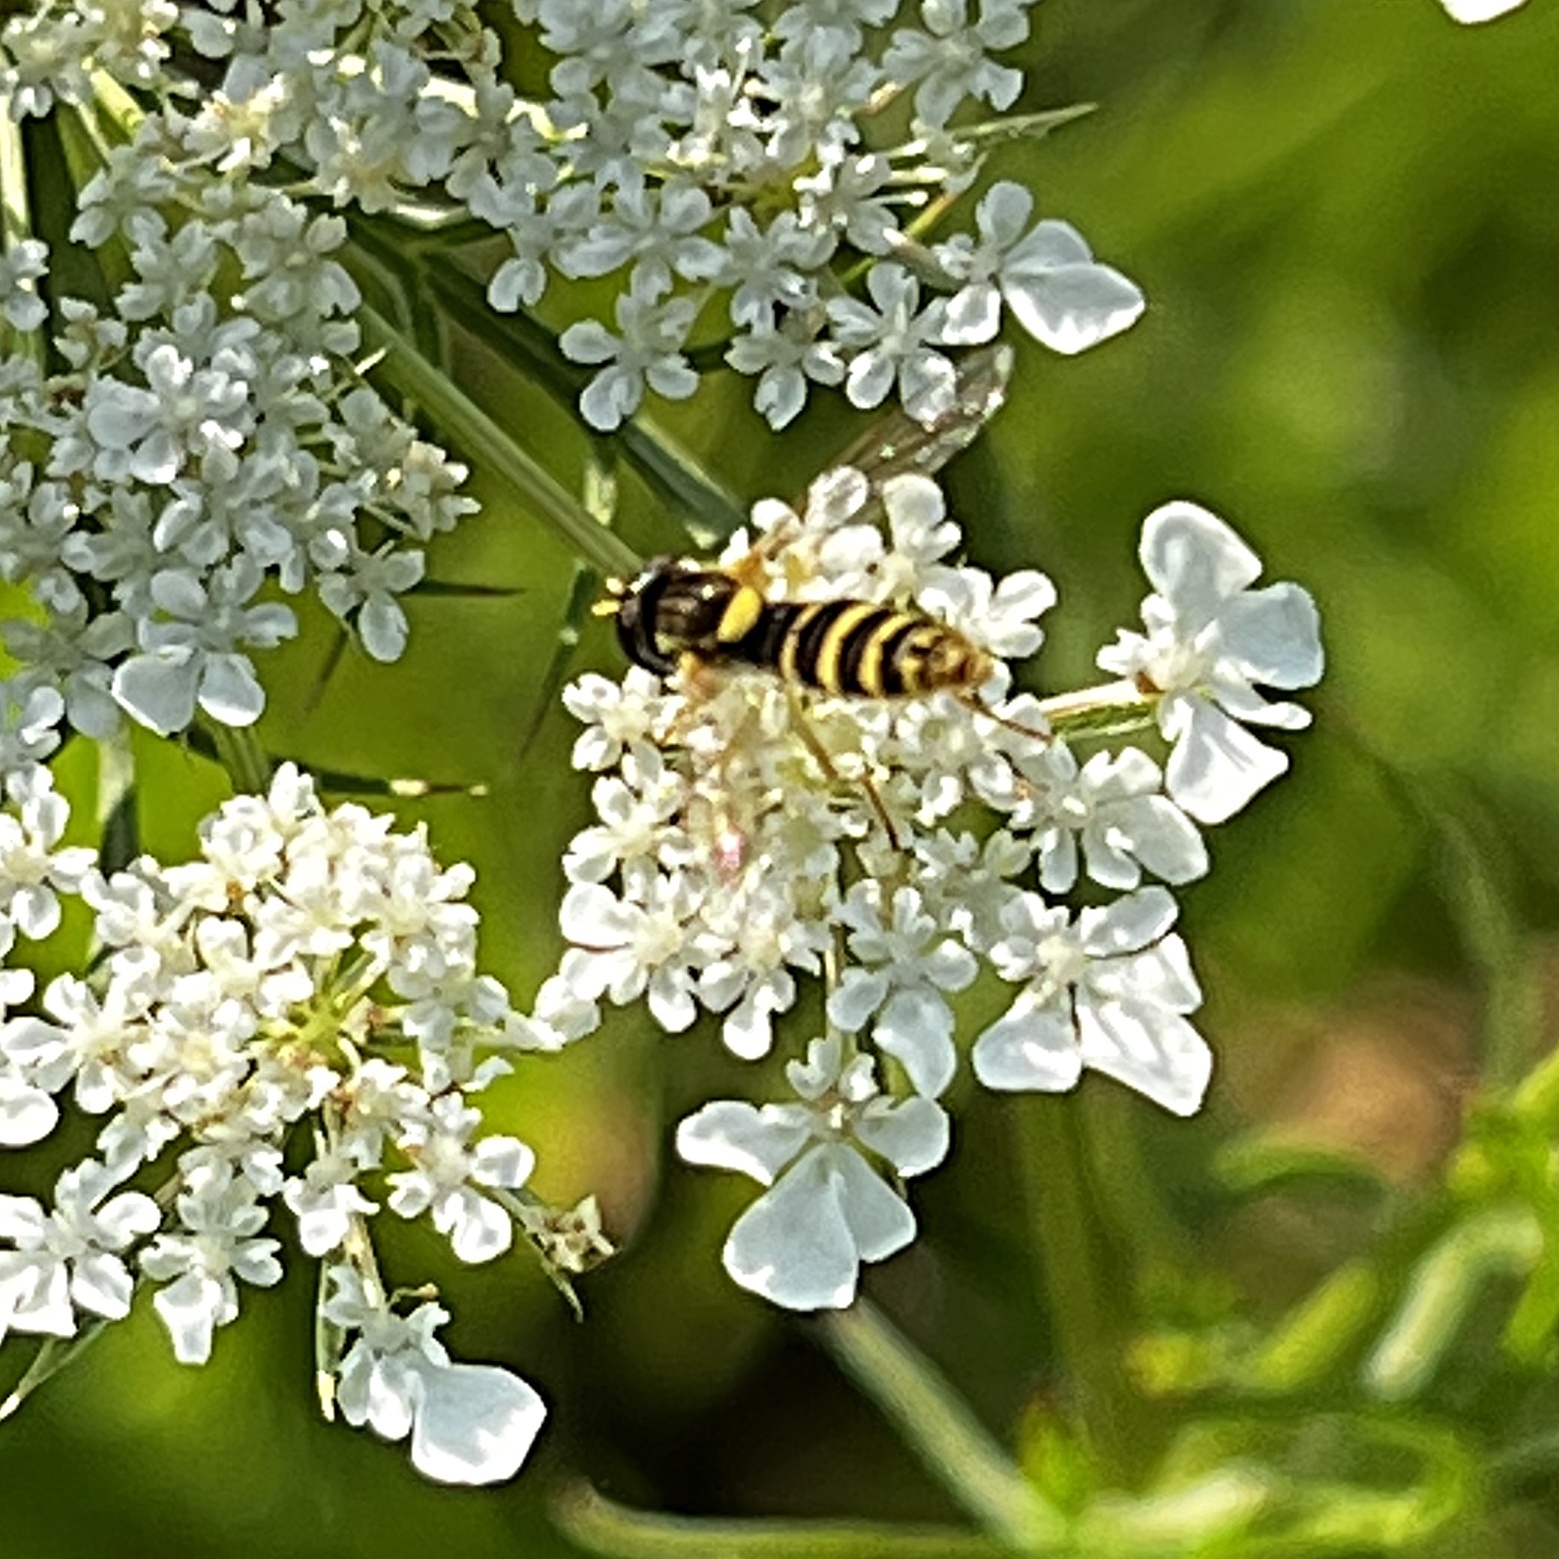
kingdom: Animalia
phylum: Arthropoda
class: Insecta
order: Diptera
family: Syrphidae
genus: Sphaerophoria
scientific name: Sphaerophoria
